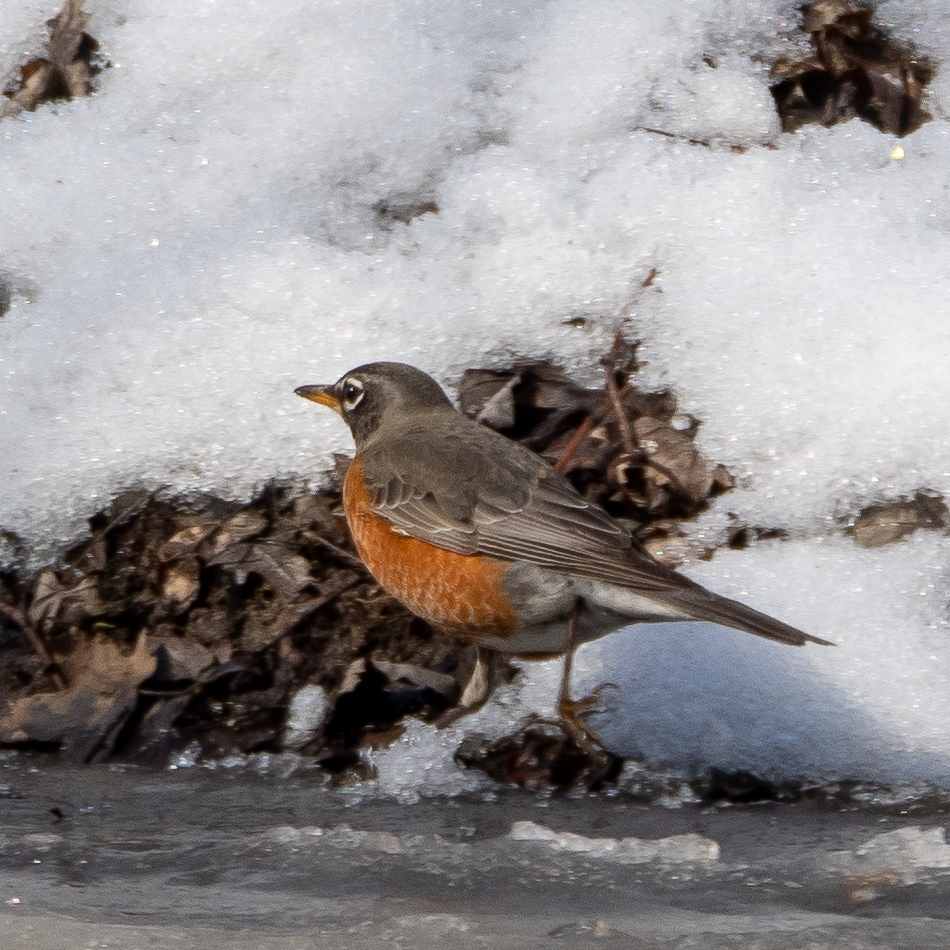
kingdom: Animalia
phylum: Chordata
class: Aves
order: Passeriformes
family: Turdidae
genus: Turdus
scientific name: Turdus migratorius
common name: American robin
